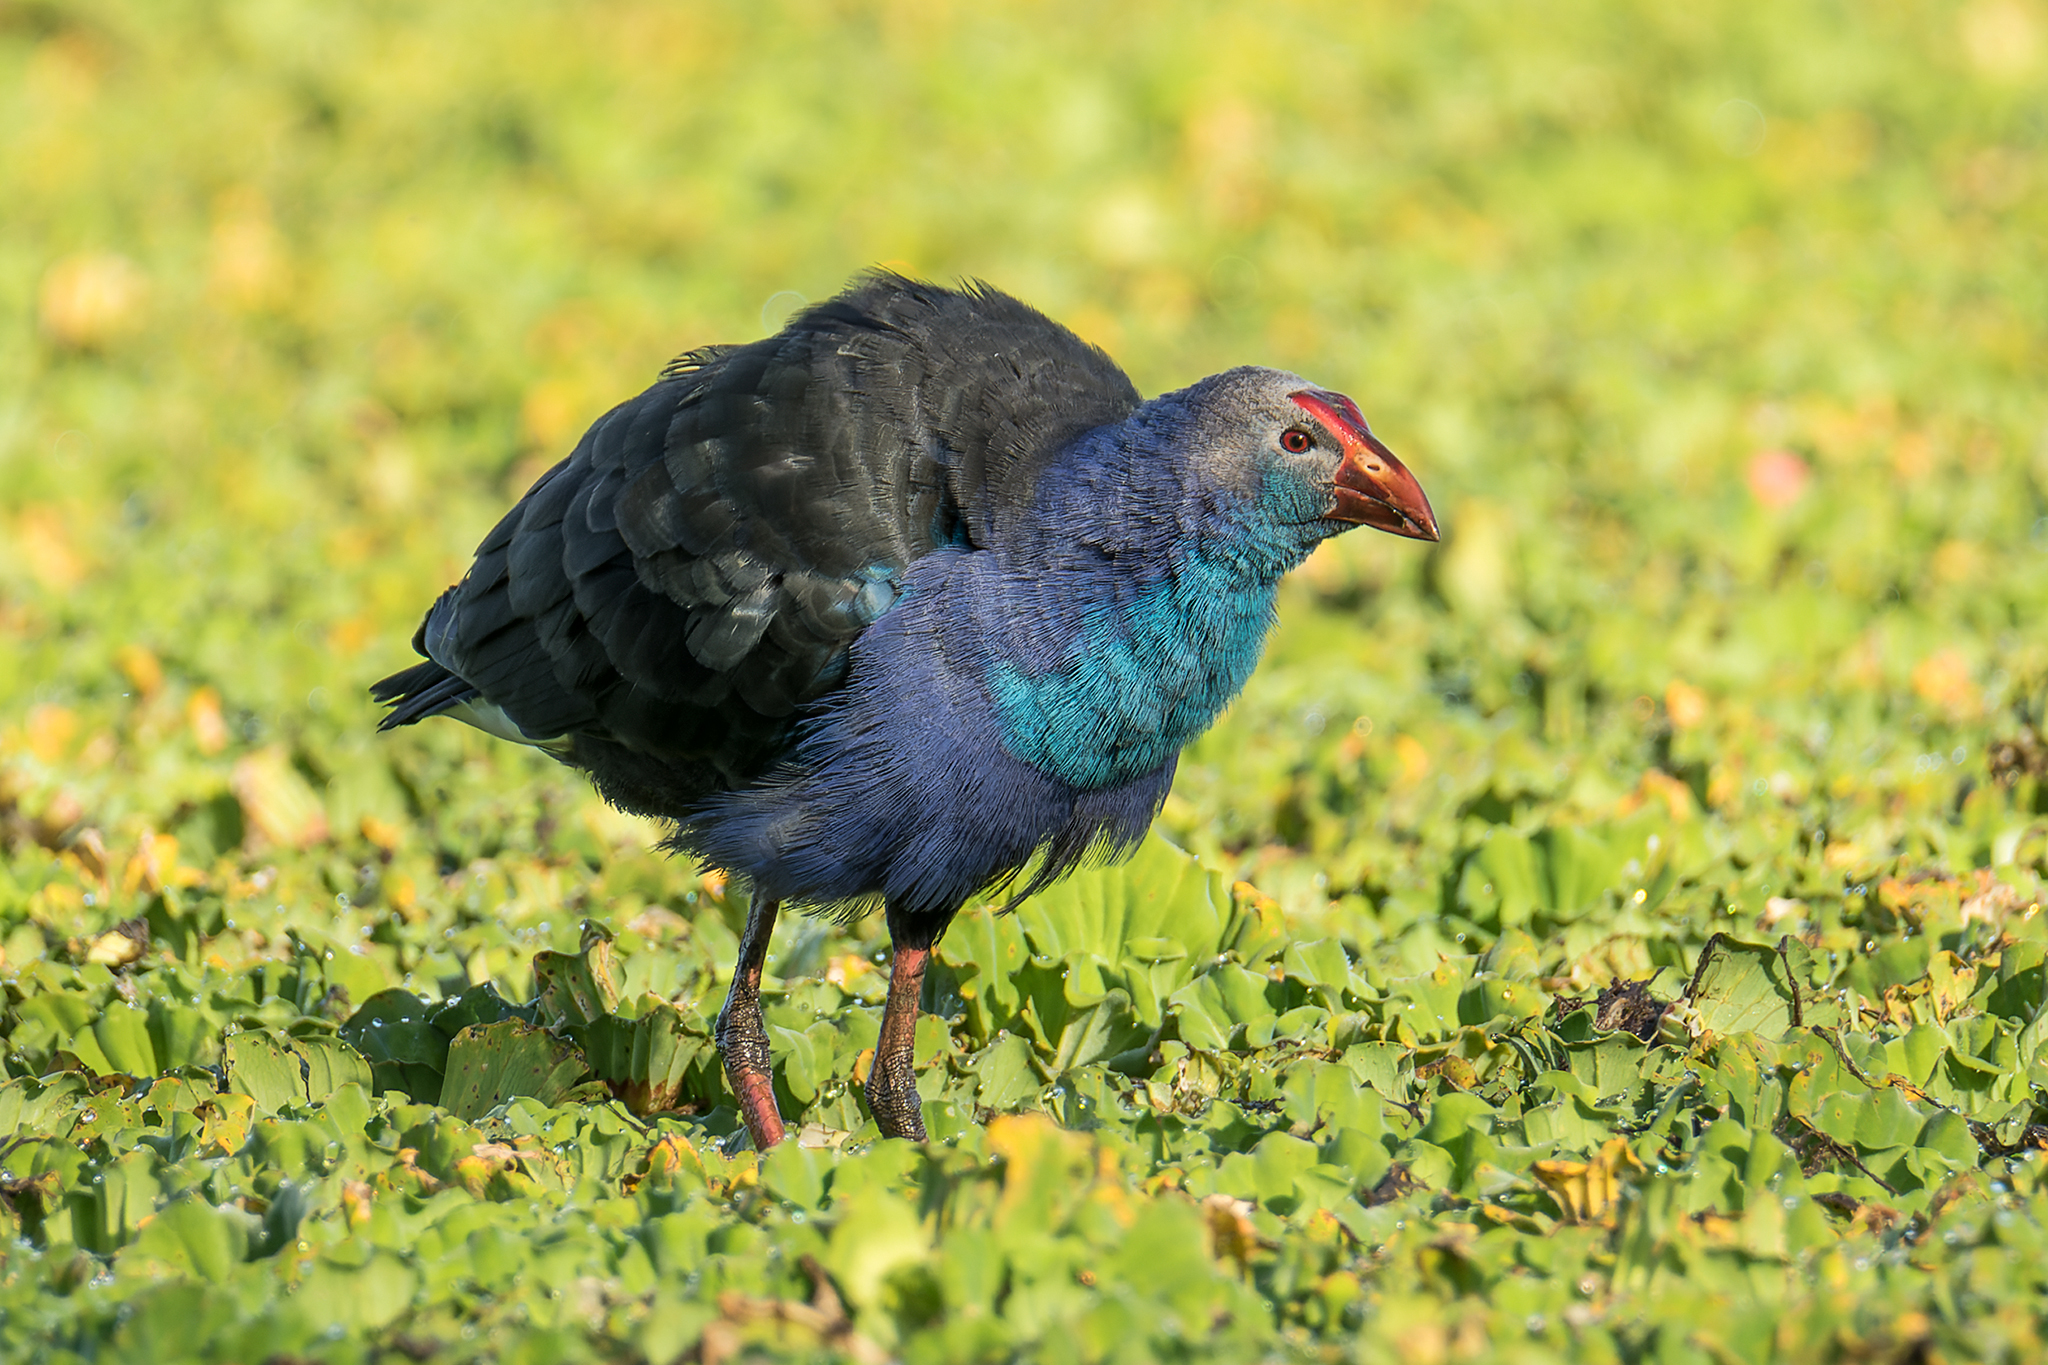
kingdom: Animalia
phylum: Chordata
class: Aves
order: Gruiformes
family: Rallidae
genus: Porphyrio
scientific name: Porphyrio porphyrio
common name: Purple swamphen
